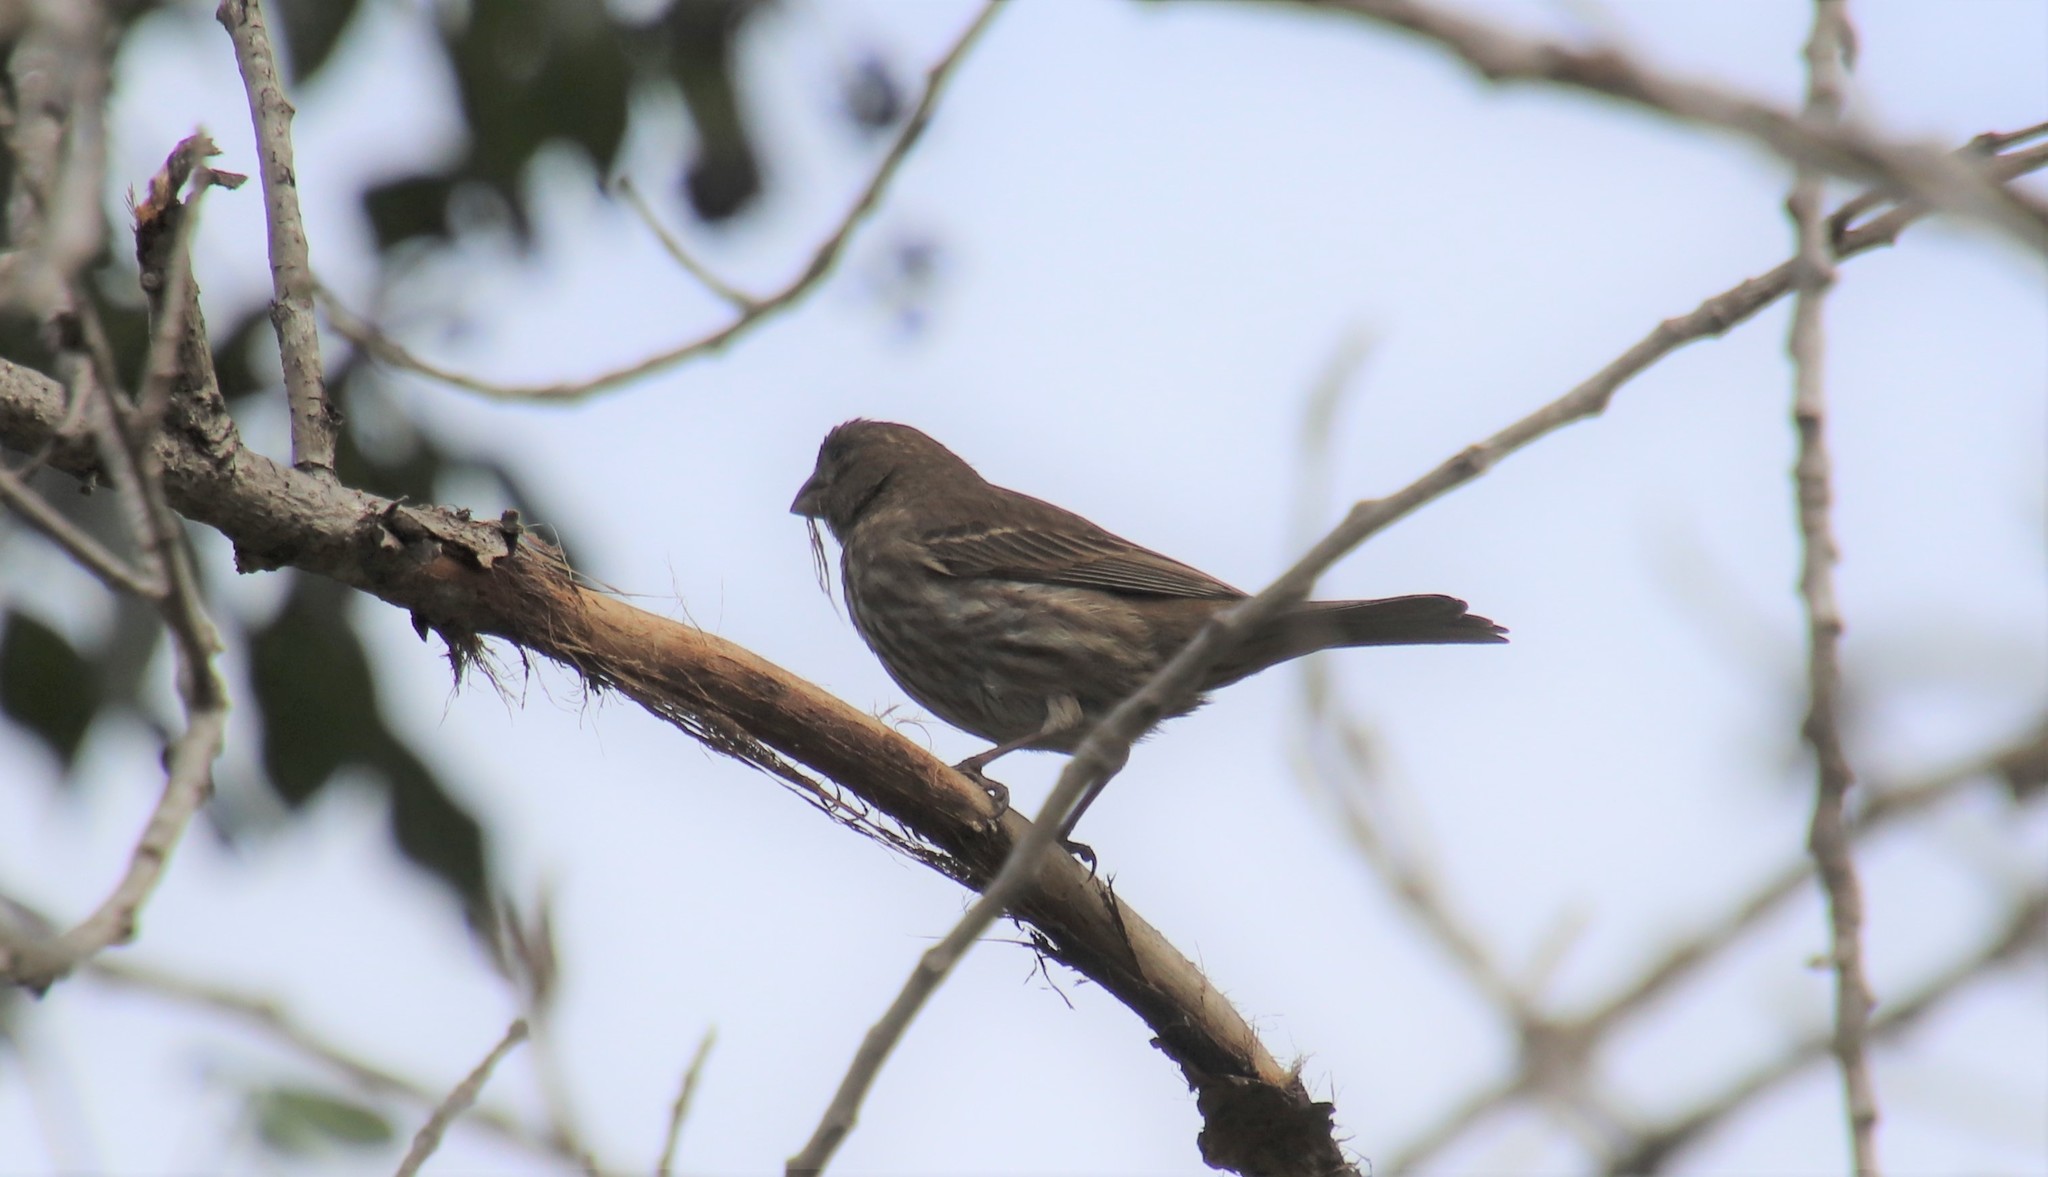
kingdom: Animalia
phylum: Chordata
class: Aves
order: Passeriformes
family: Fringillidae
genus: Haemorhous
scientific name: Haemorhous mexicanus
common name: House finch
